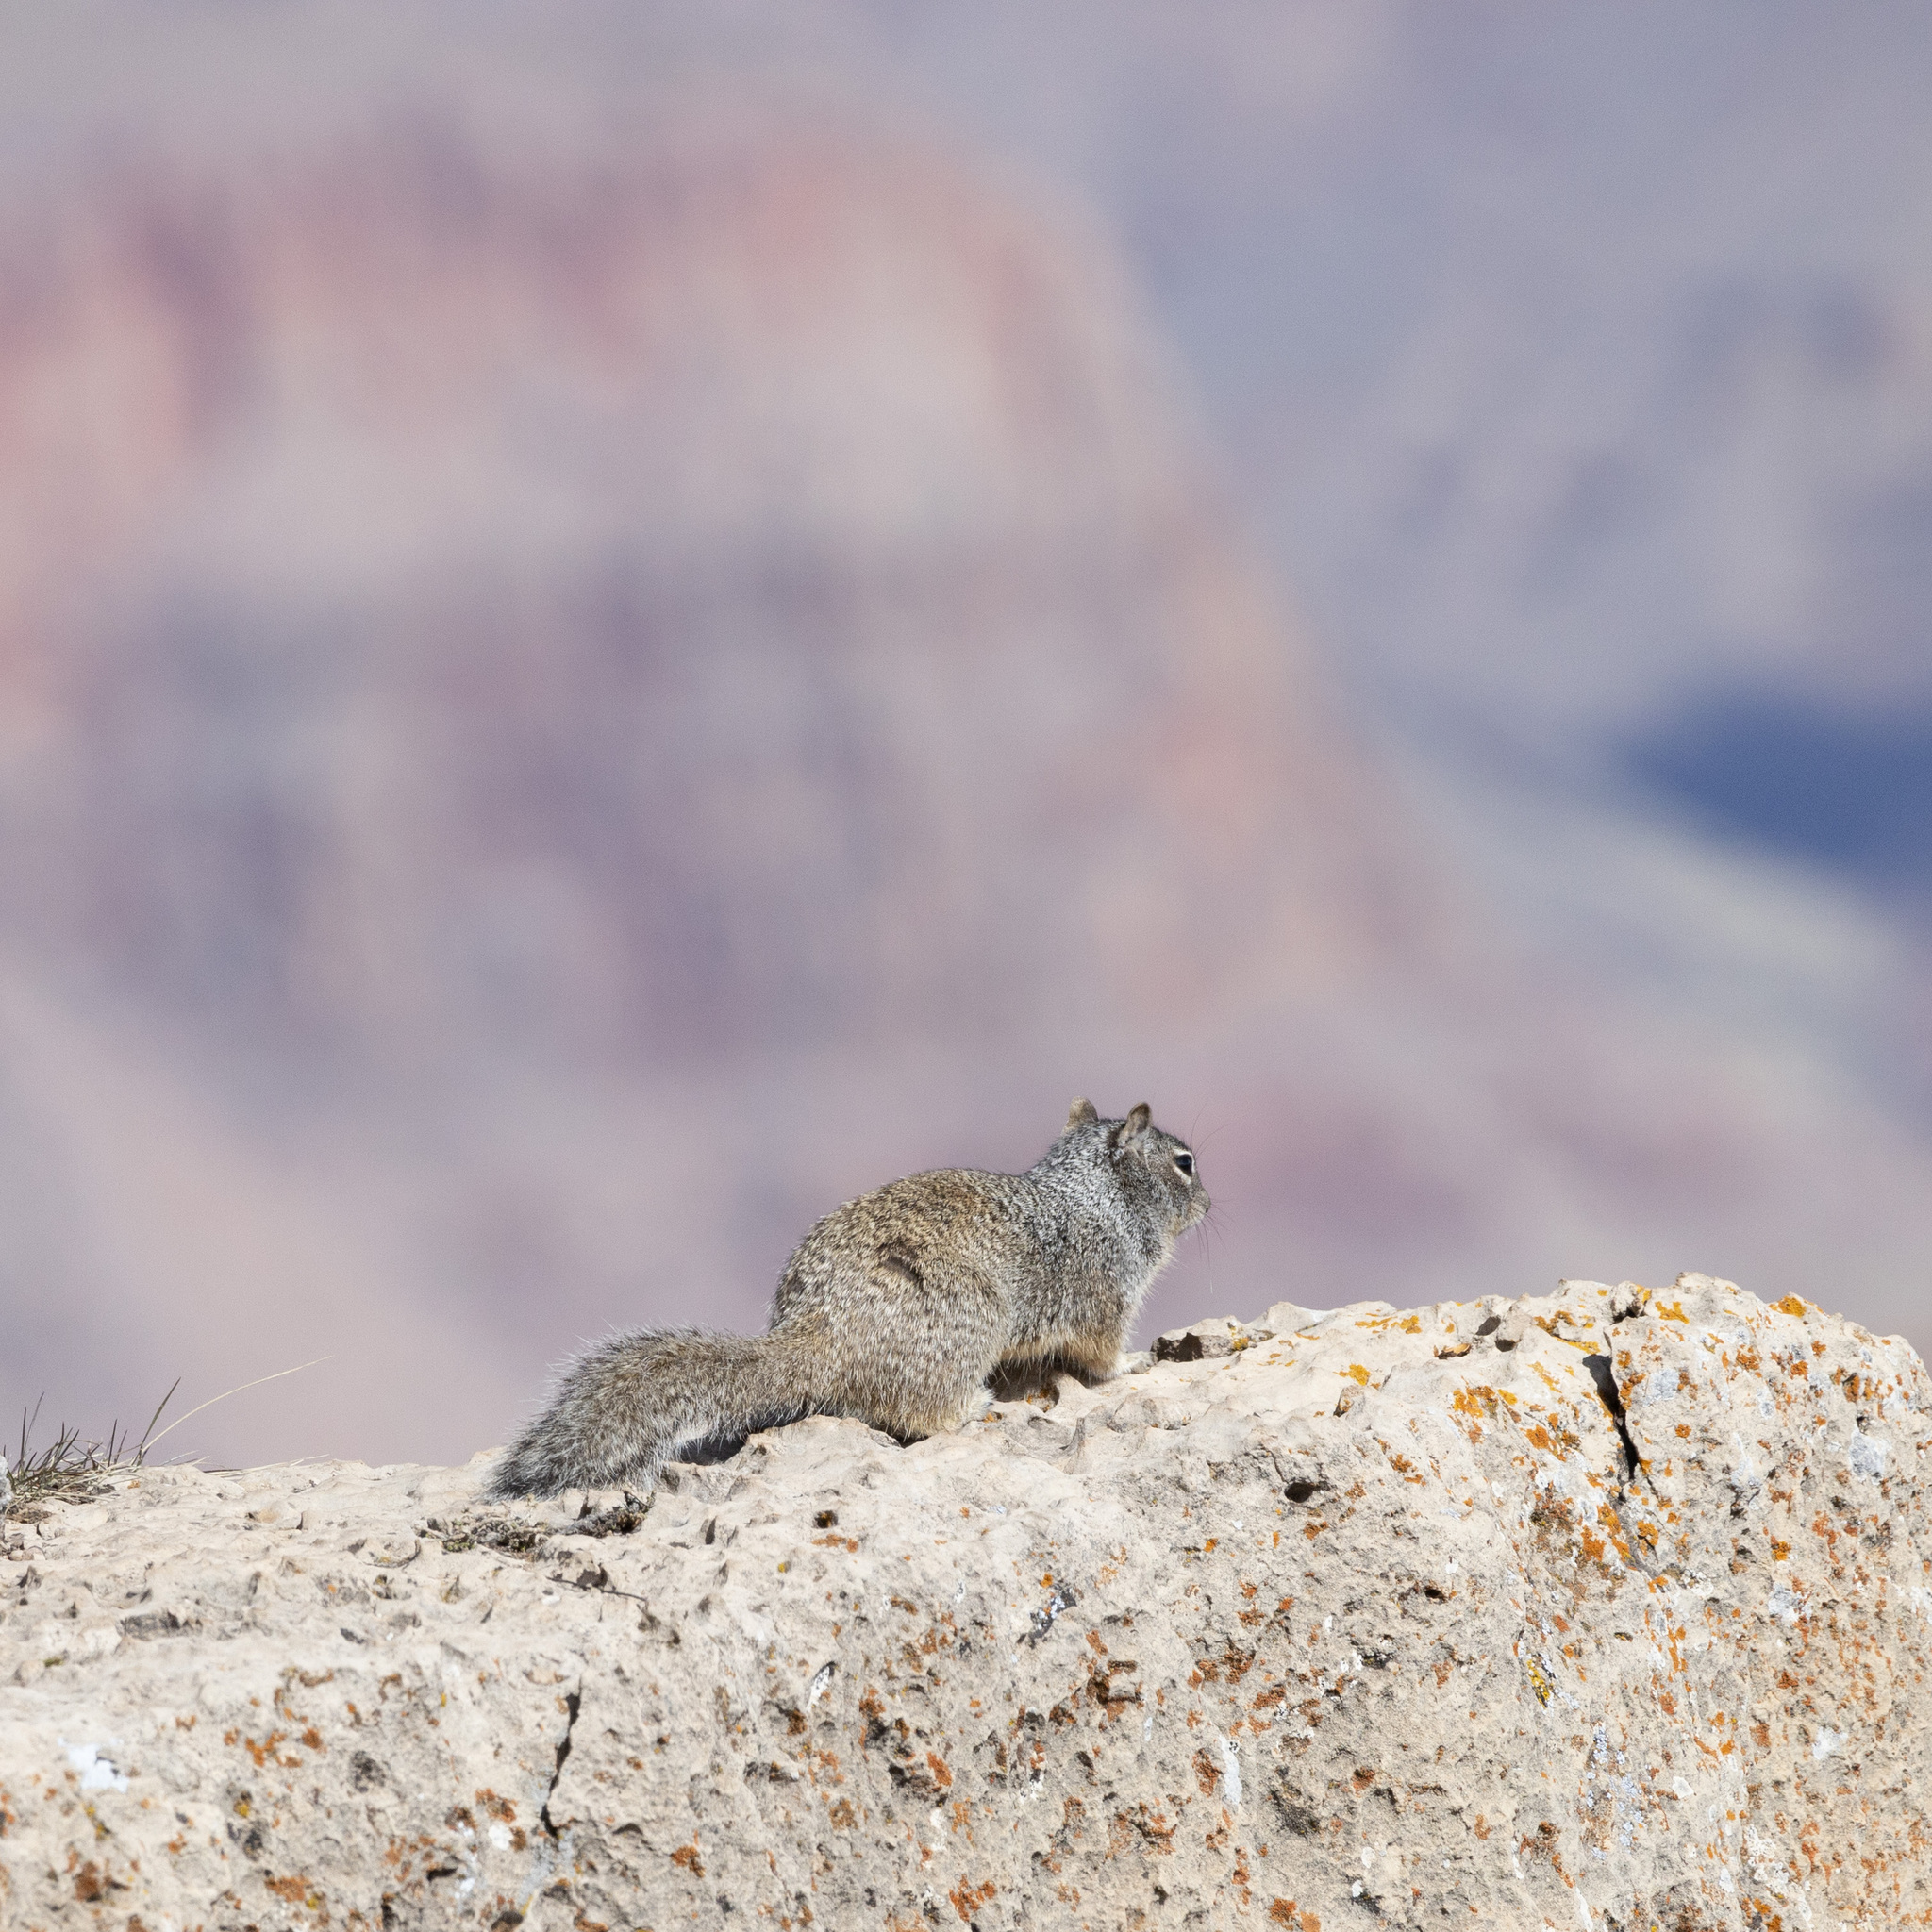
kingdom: Animalia
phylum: Chordata
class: Mammalia
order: Rodentia
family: Sciuridae
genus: Otospermophilus
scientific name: Otospermophilus variegatus
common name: Rock squirrel
